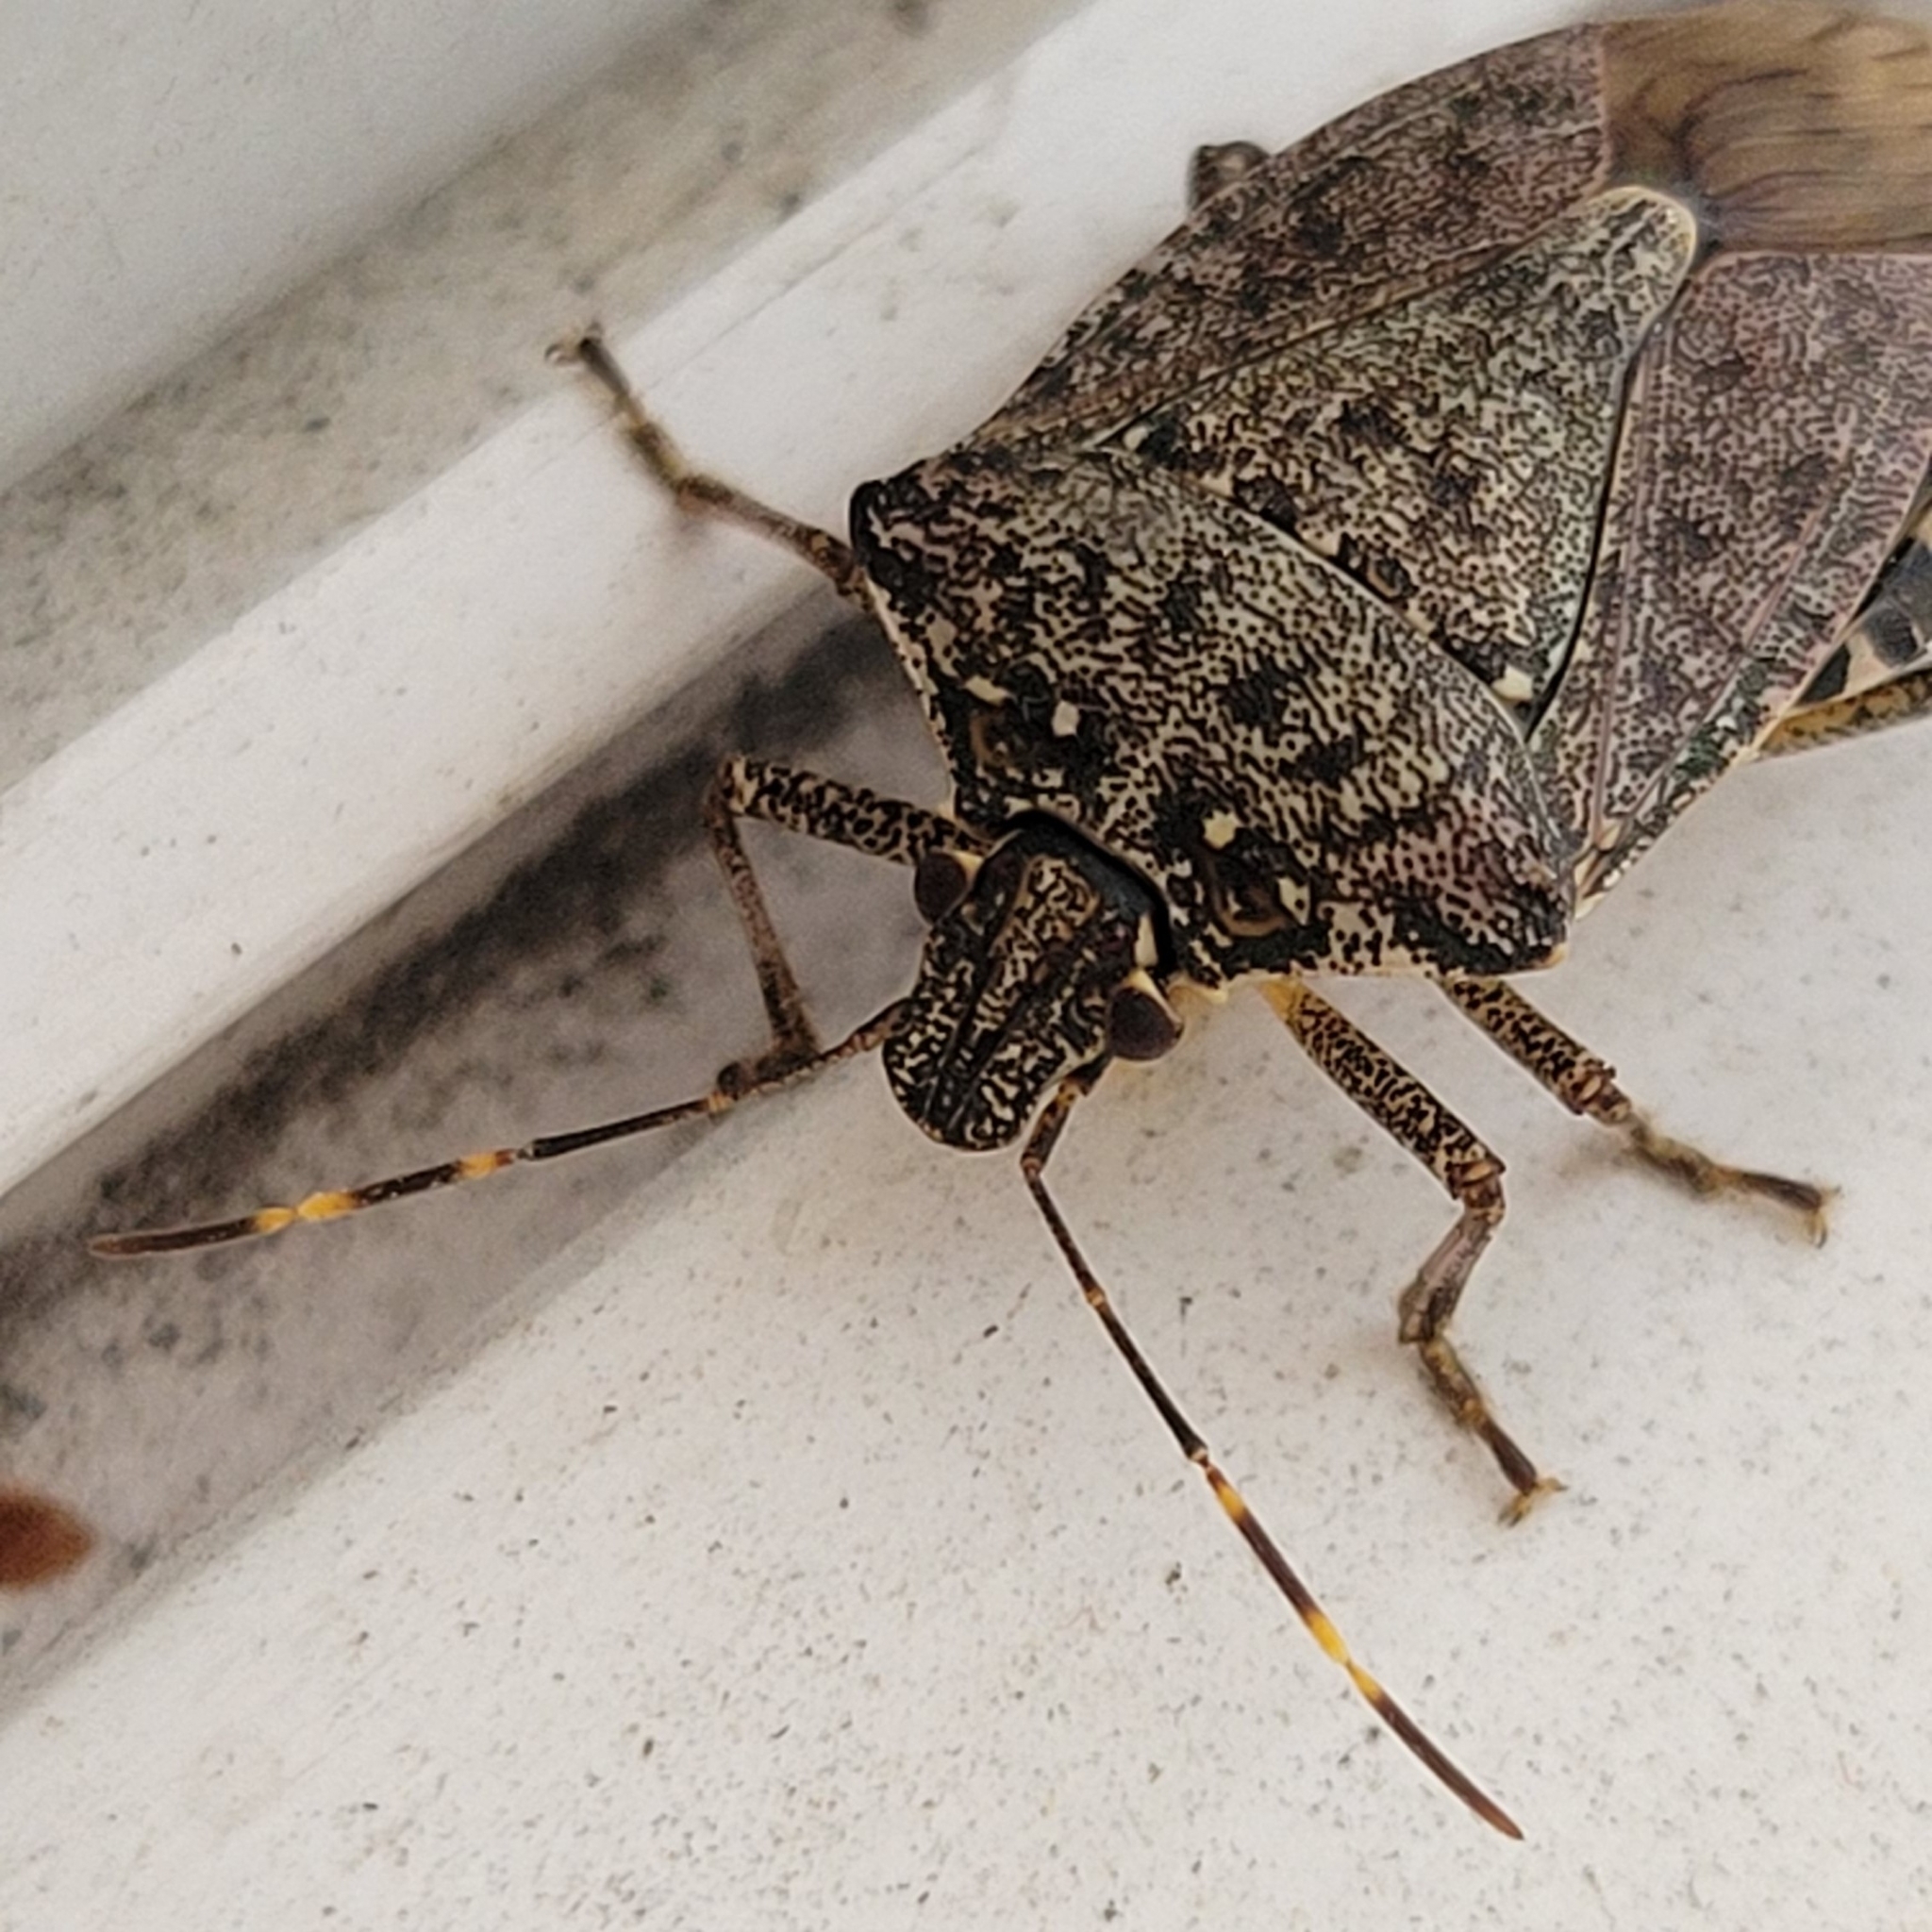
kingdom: Animalia
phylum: Arthropoda
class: Insecta
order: Hemiptera
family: Pentatomidae
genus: Halyomorpha
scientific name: Halyomorpha halys
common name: Brown marmorated stink bug
